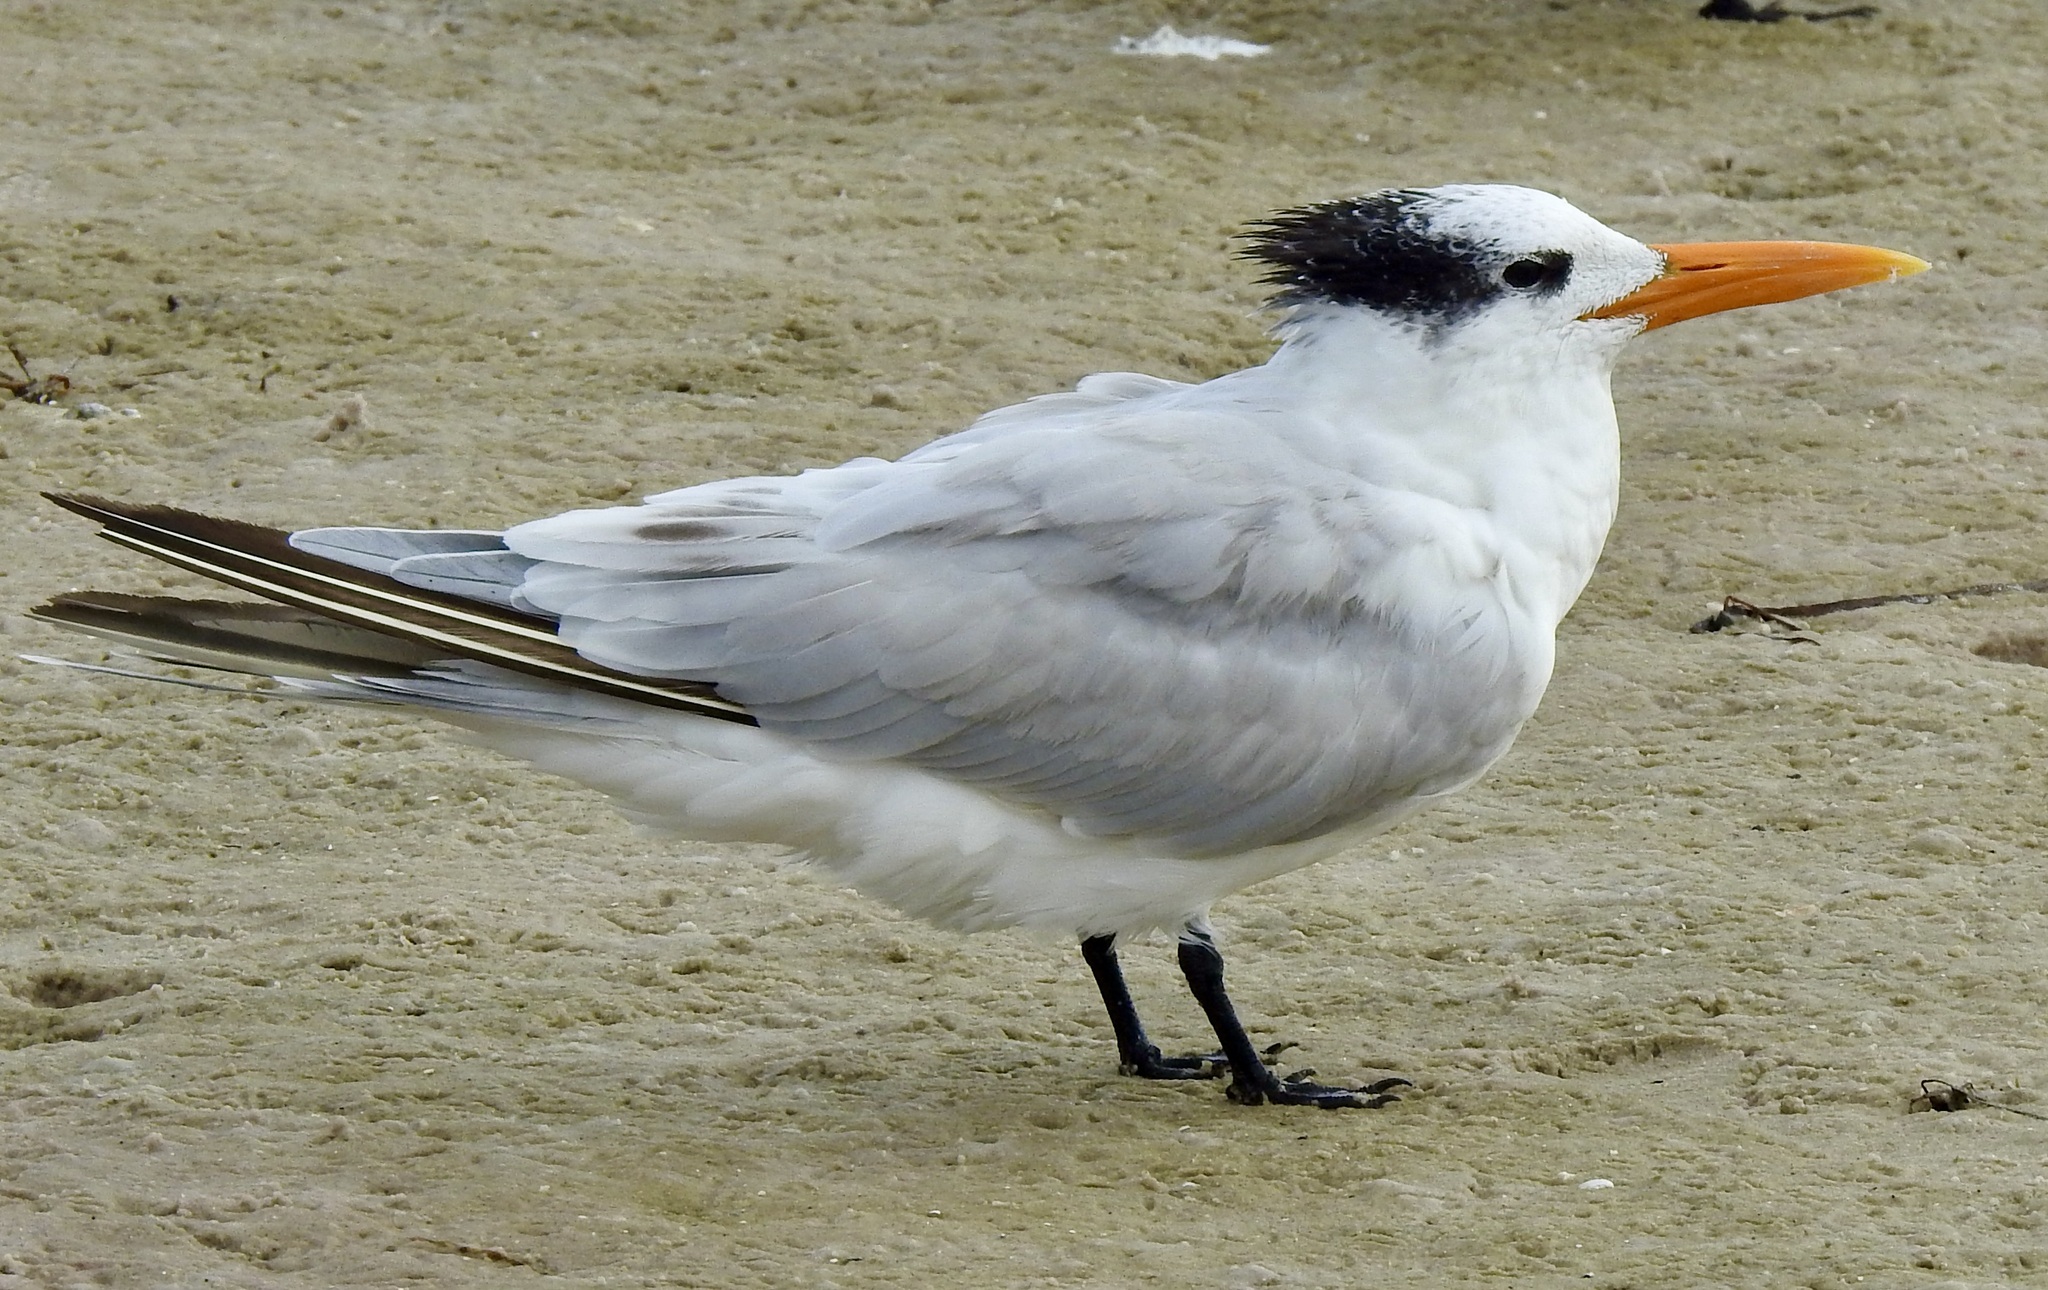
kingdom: Animalia
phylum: Chordata
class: Aves
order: Charadriiformes
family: Laridae
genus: Thalasseus
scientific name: Thalasseus maximus
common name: Royal tern
